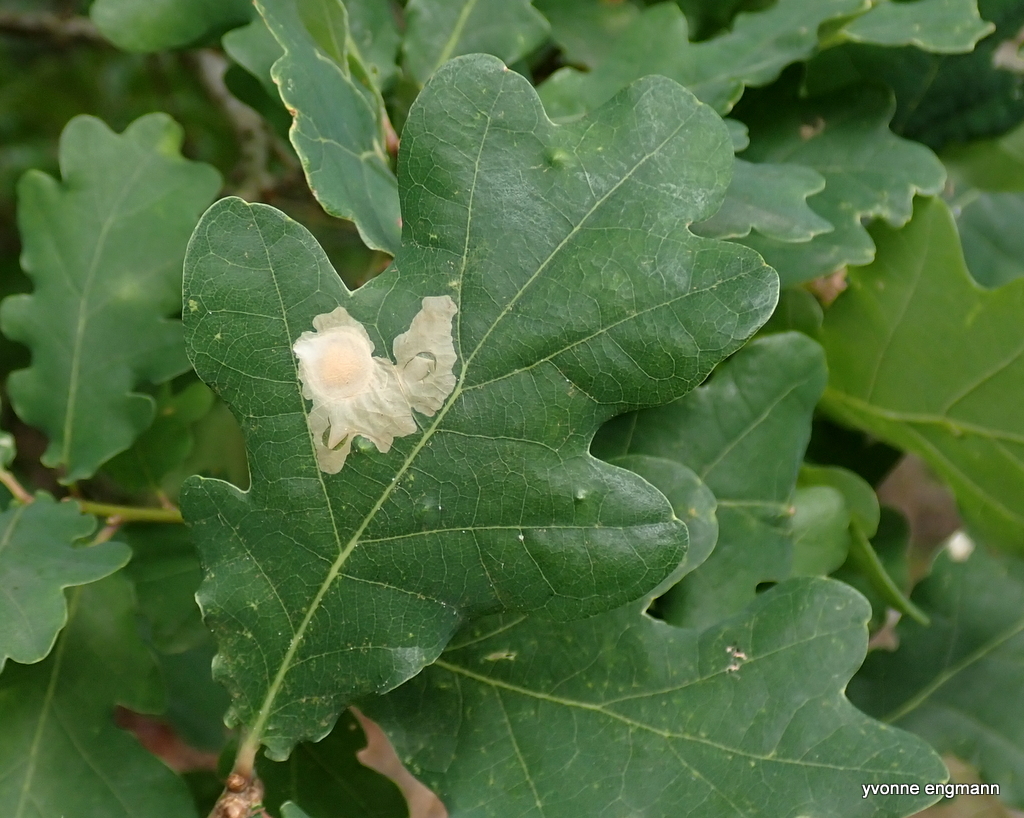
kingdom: Animalia
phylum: Arthropoda
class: Insecta
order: Lepidoptera
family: Tischeriidae
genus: Tischeria
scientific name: Tischeria ekebladella
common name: Oak carl
